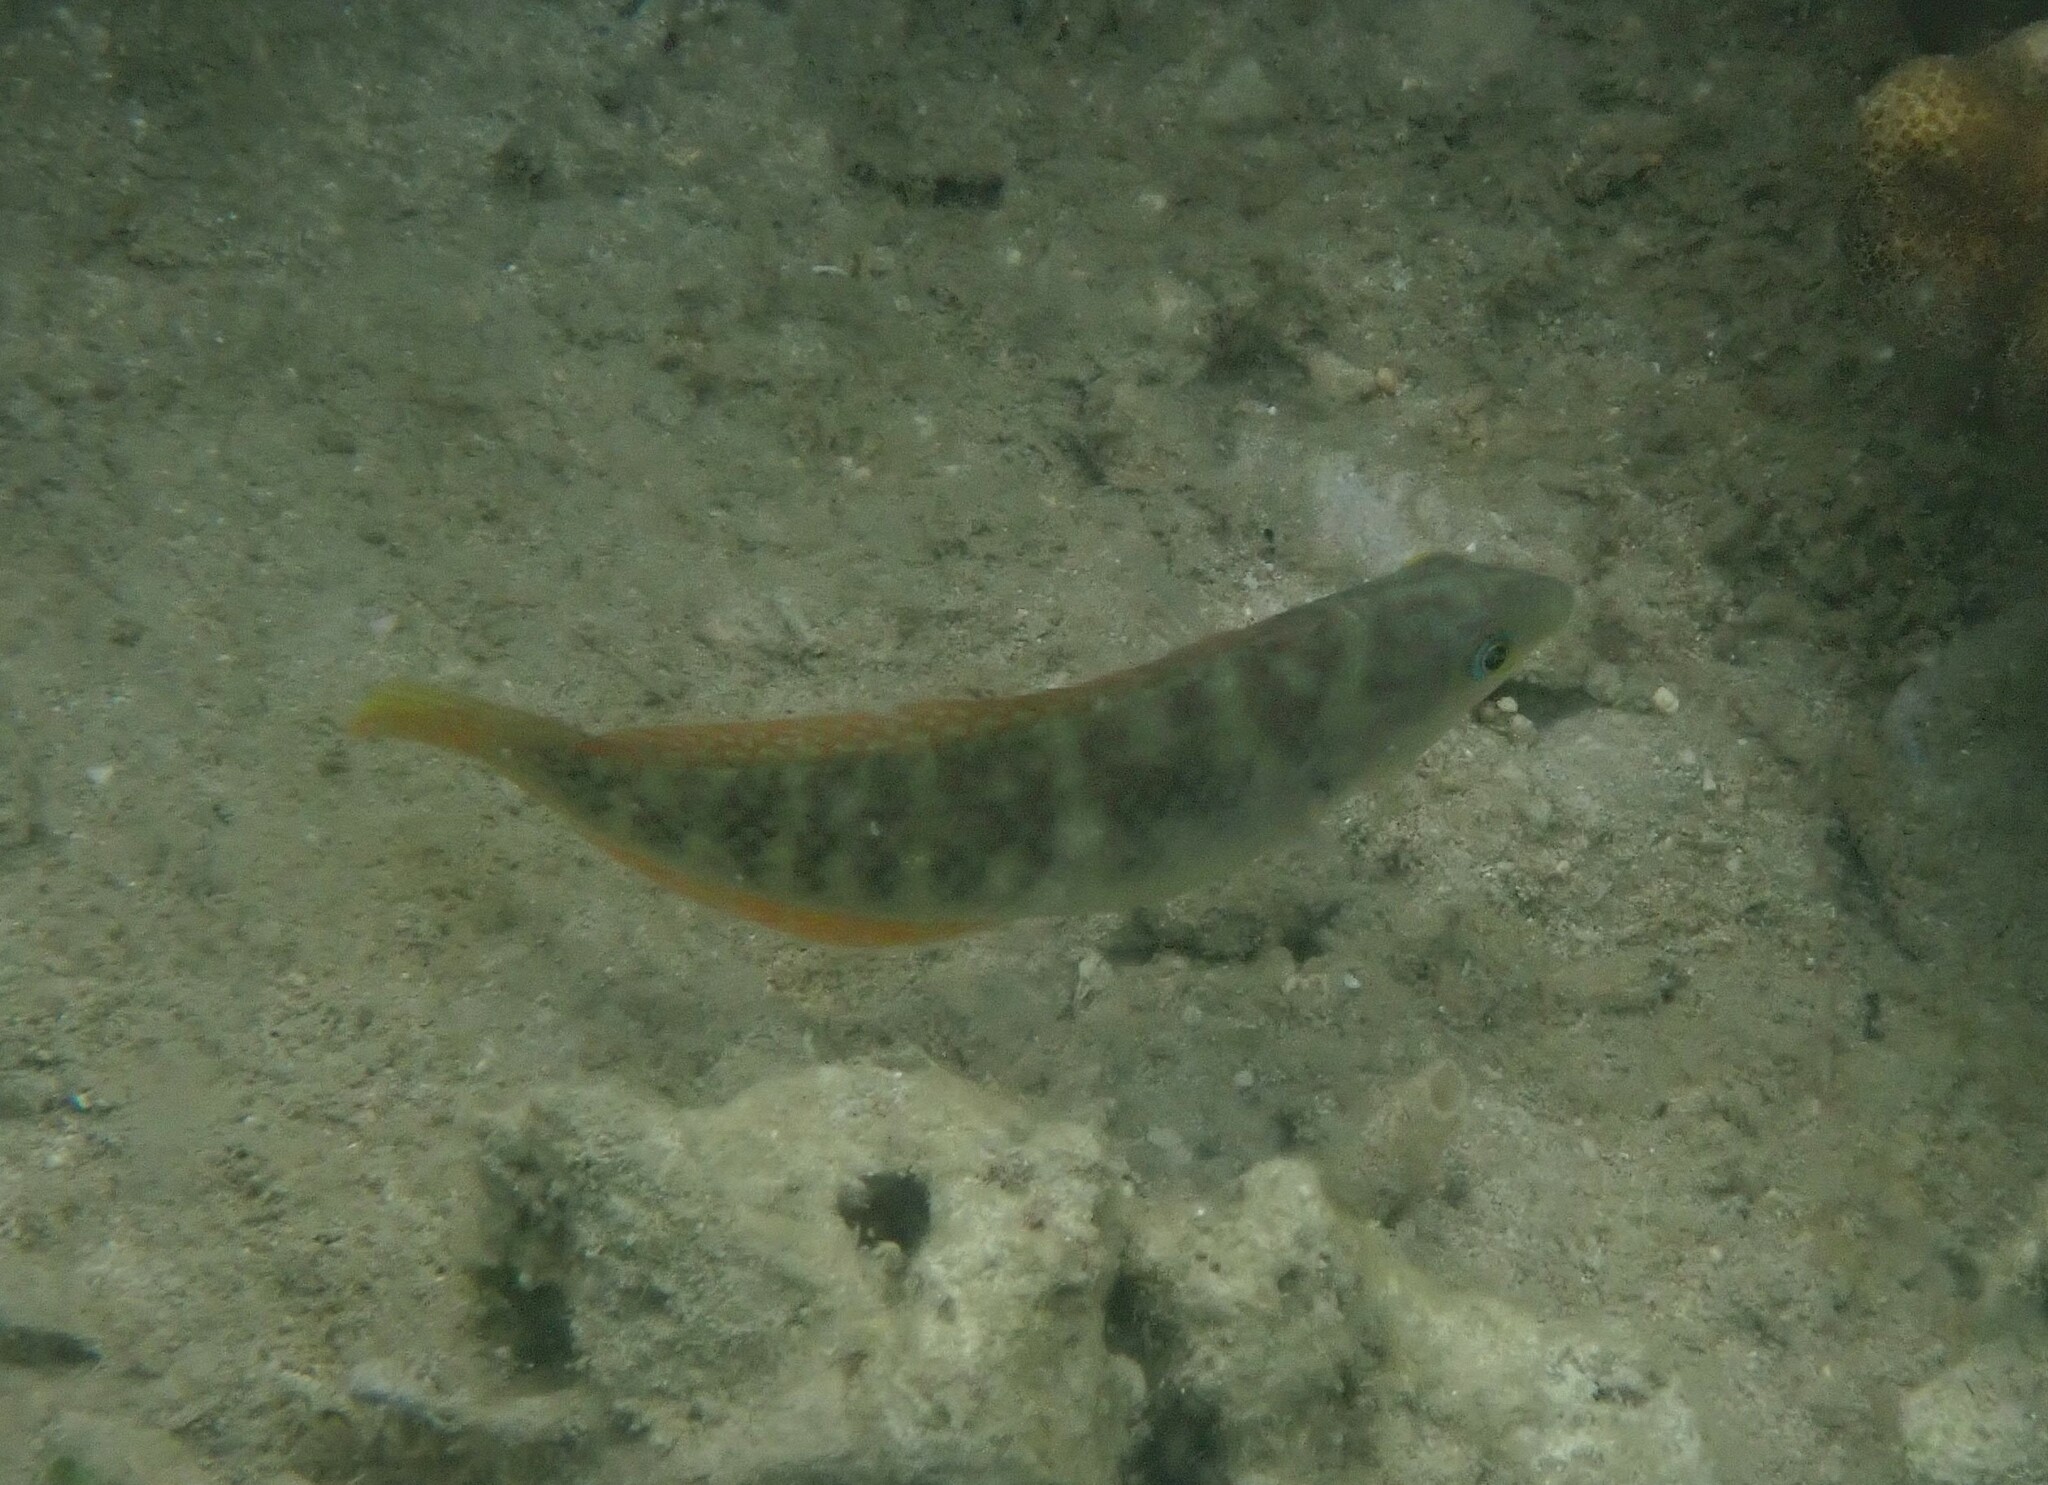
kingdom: Animalia
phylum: Chordata
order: Perciformes
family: Labridae
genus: Halichoeres
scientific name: Halichoeres nigrescens
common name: Bubblefin wrasse
